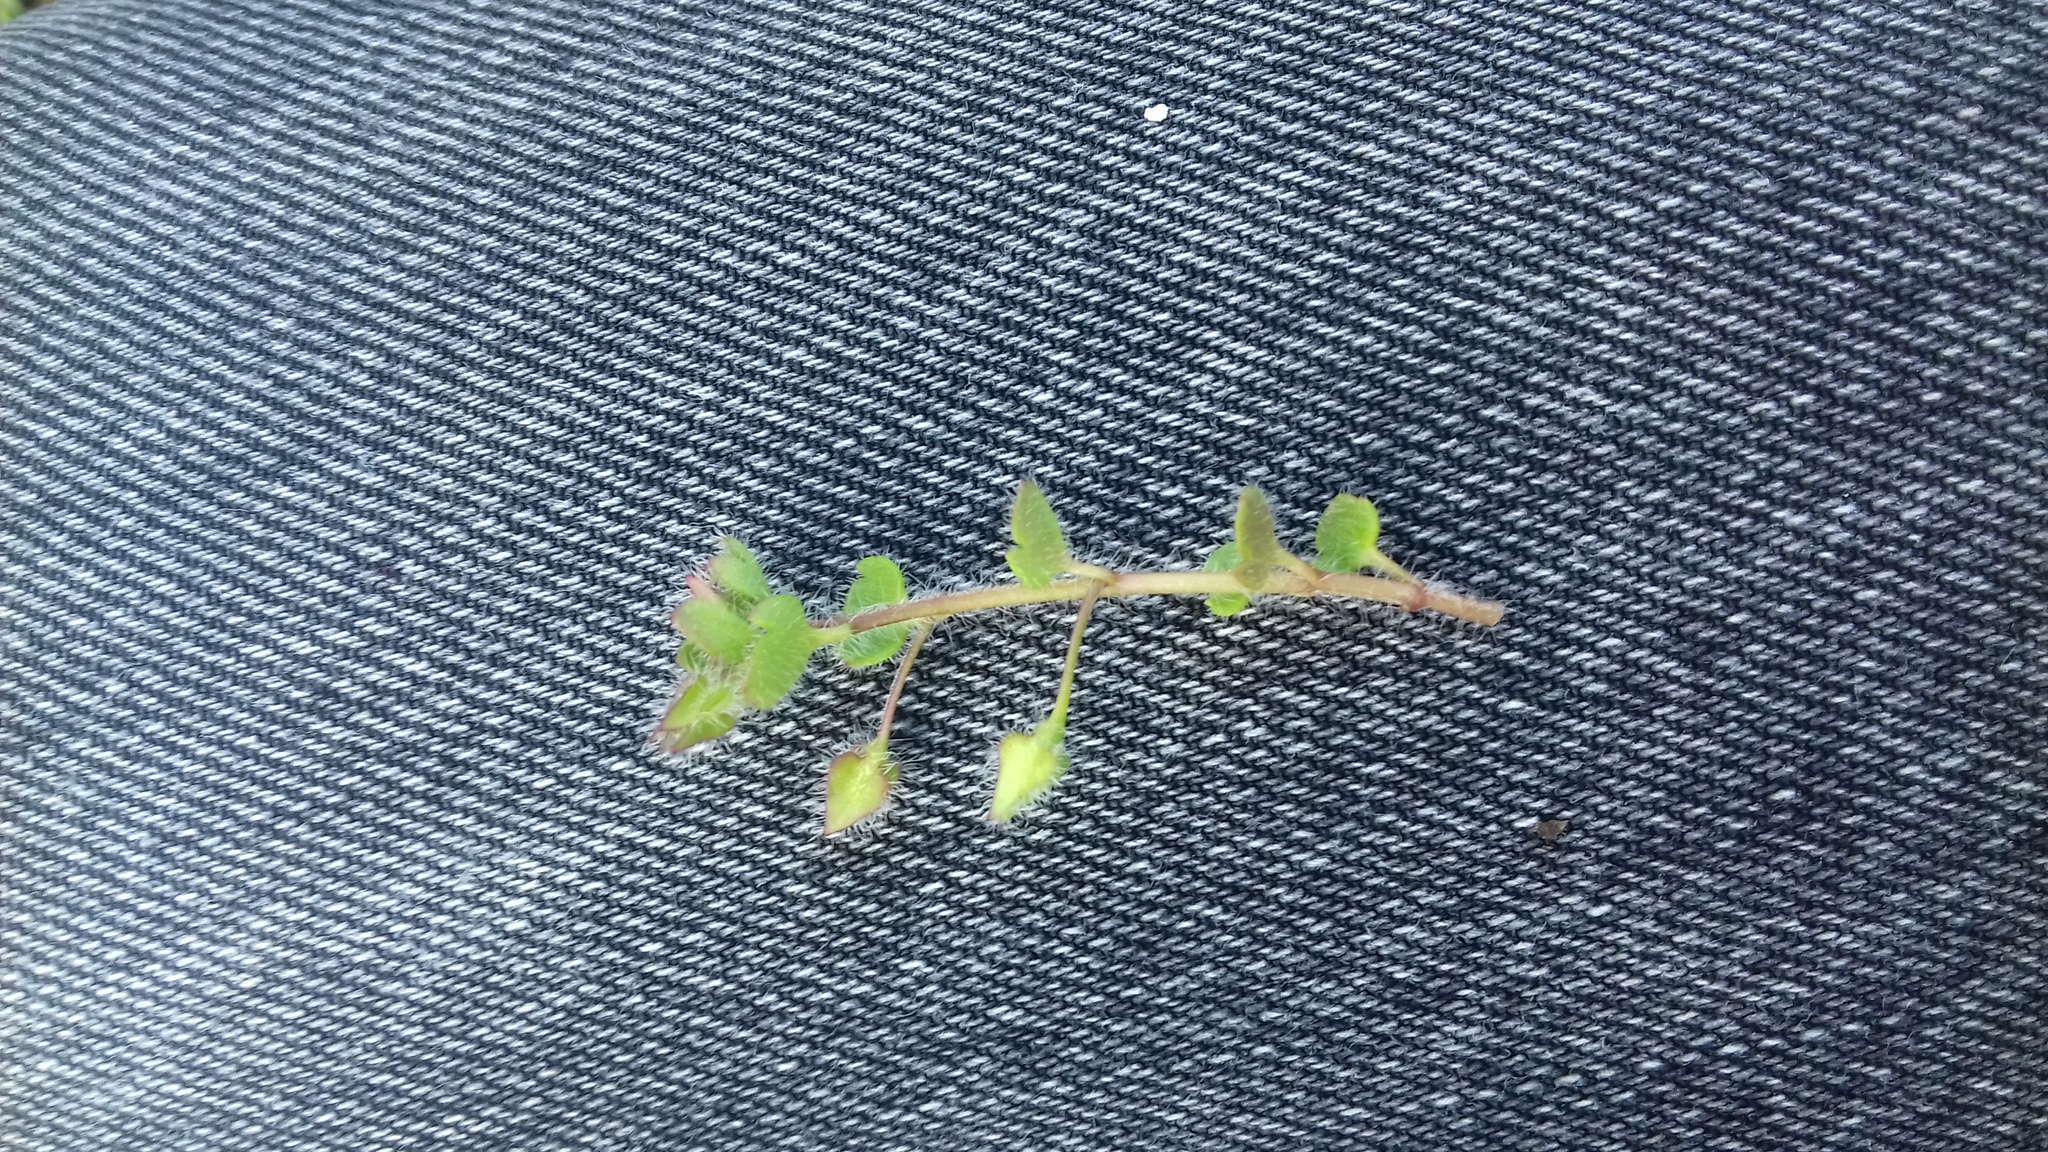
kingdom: Plantae
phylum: Tracheophyta
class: Magnoliopsida
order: Lamiales
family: Plantaginaceae
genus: Veronica
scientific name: Veronica hederifolia
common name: Ivy-leaved speedwell
